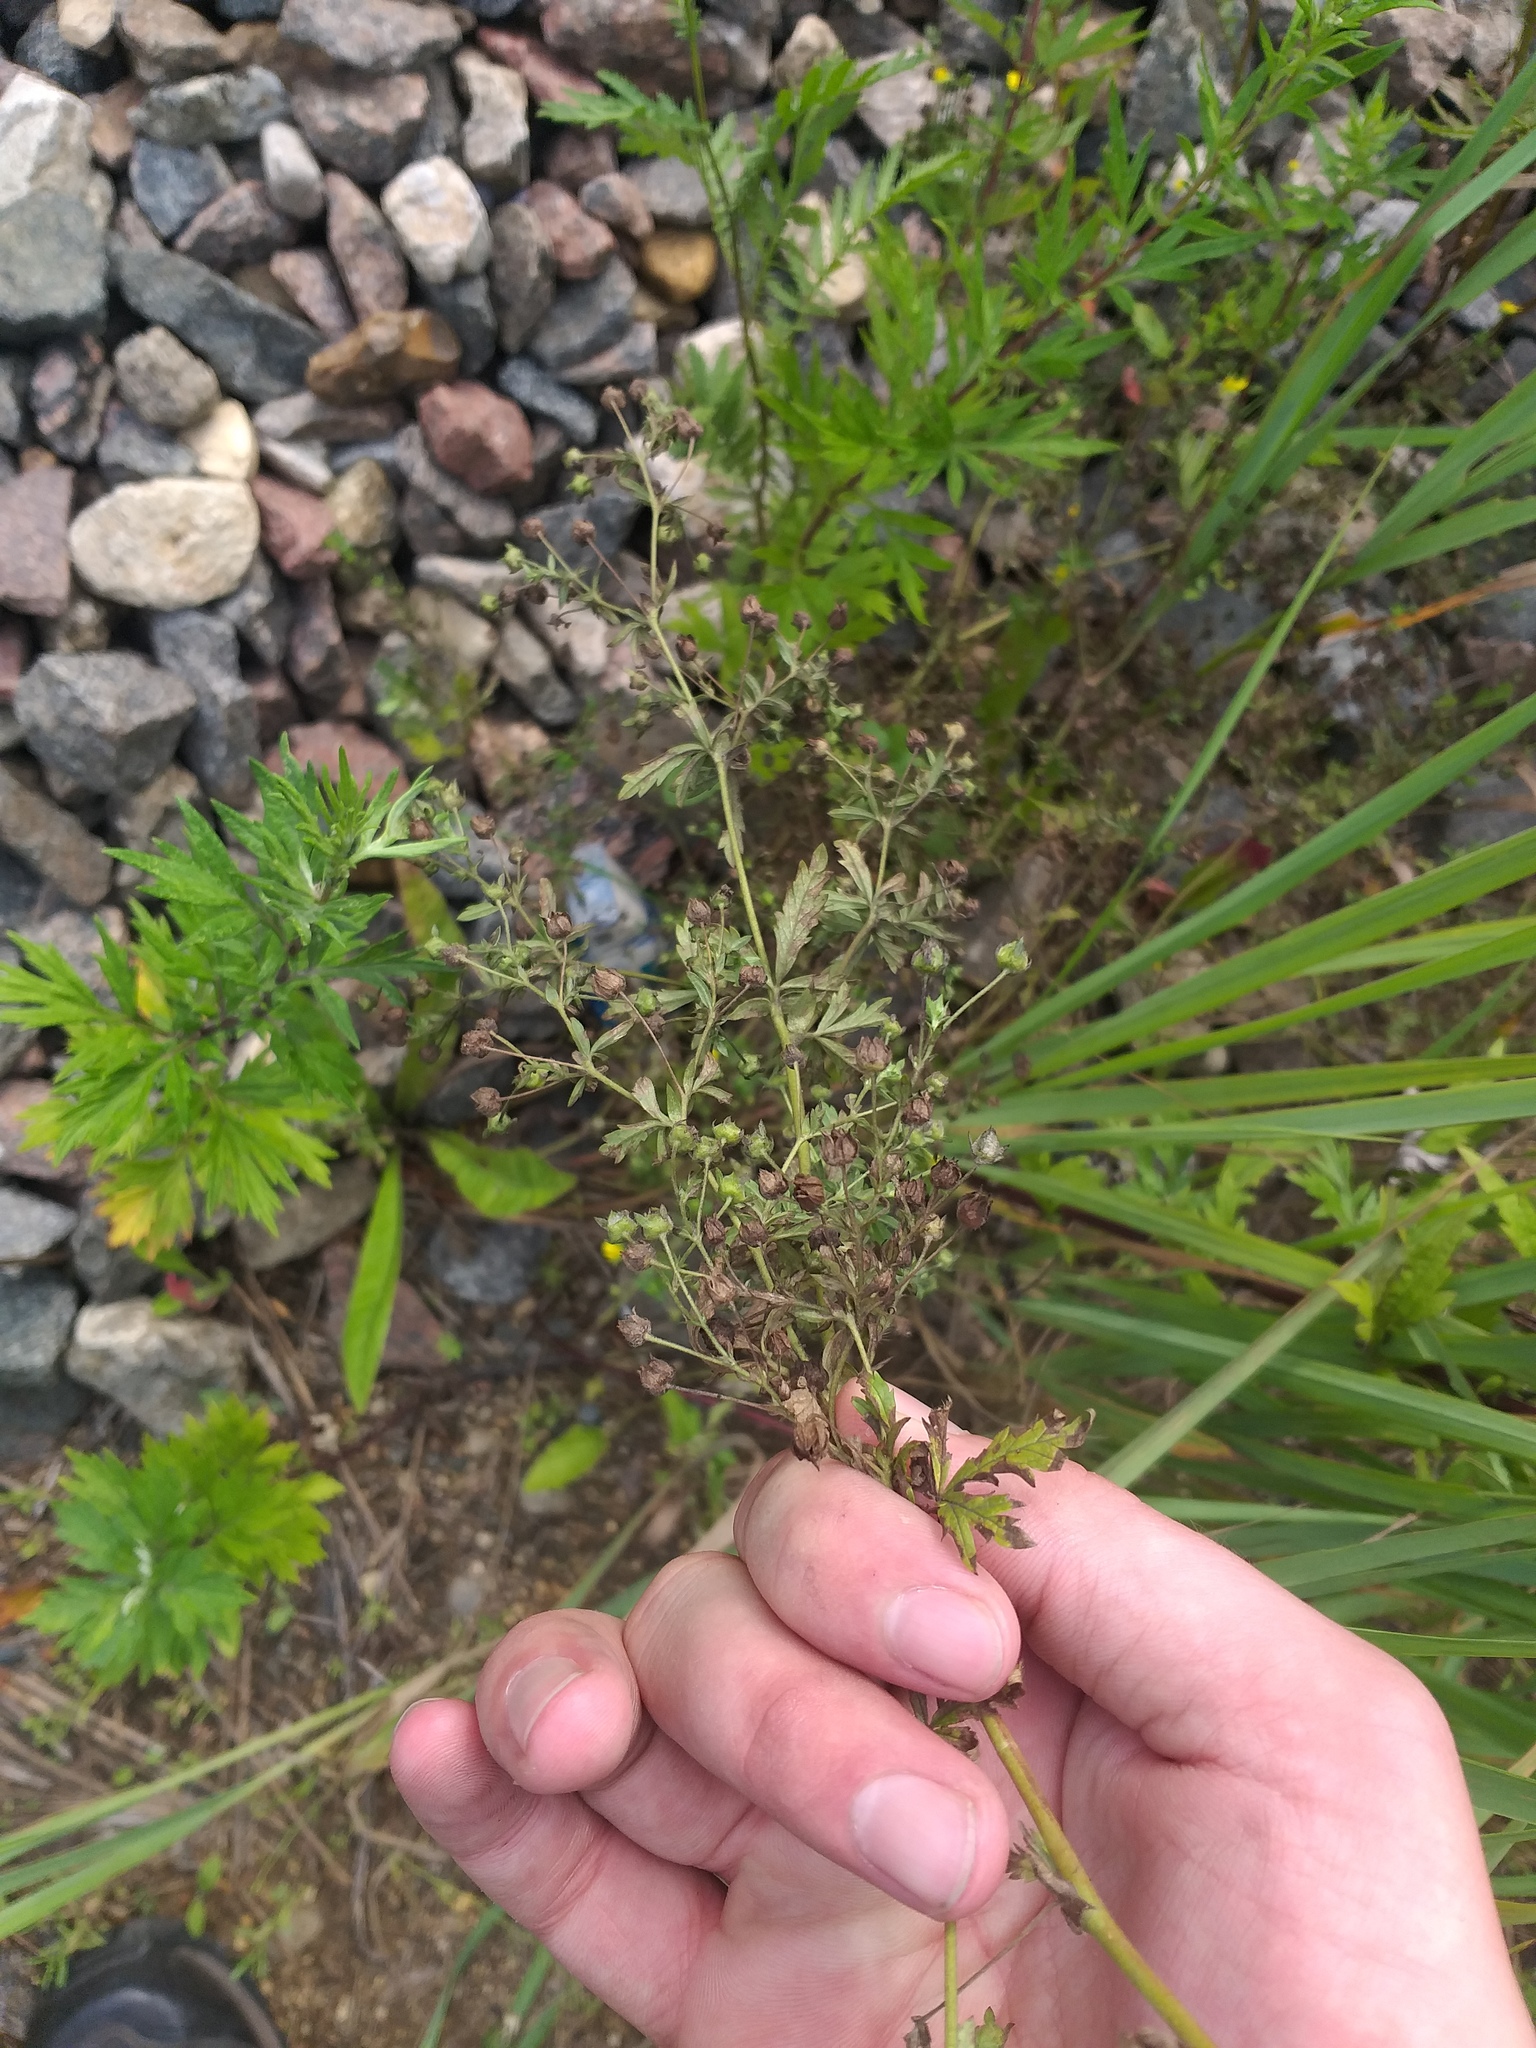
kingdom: Plantae
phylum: Tracheophyta
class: Magnoliopsida
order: Rosales
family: Rosaceae
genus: Potentilla
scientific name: Potentilla intermedia
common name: Downy cinquefoil
